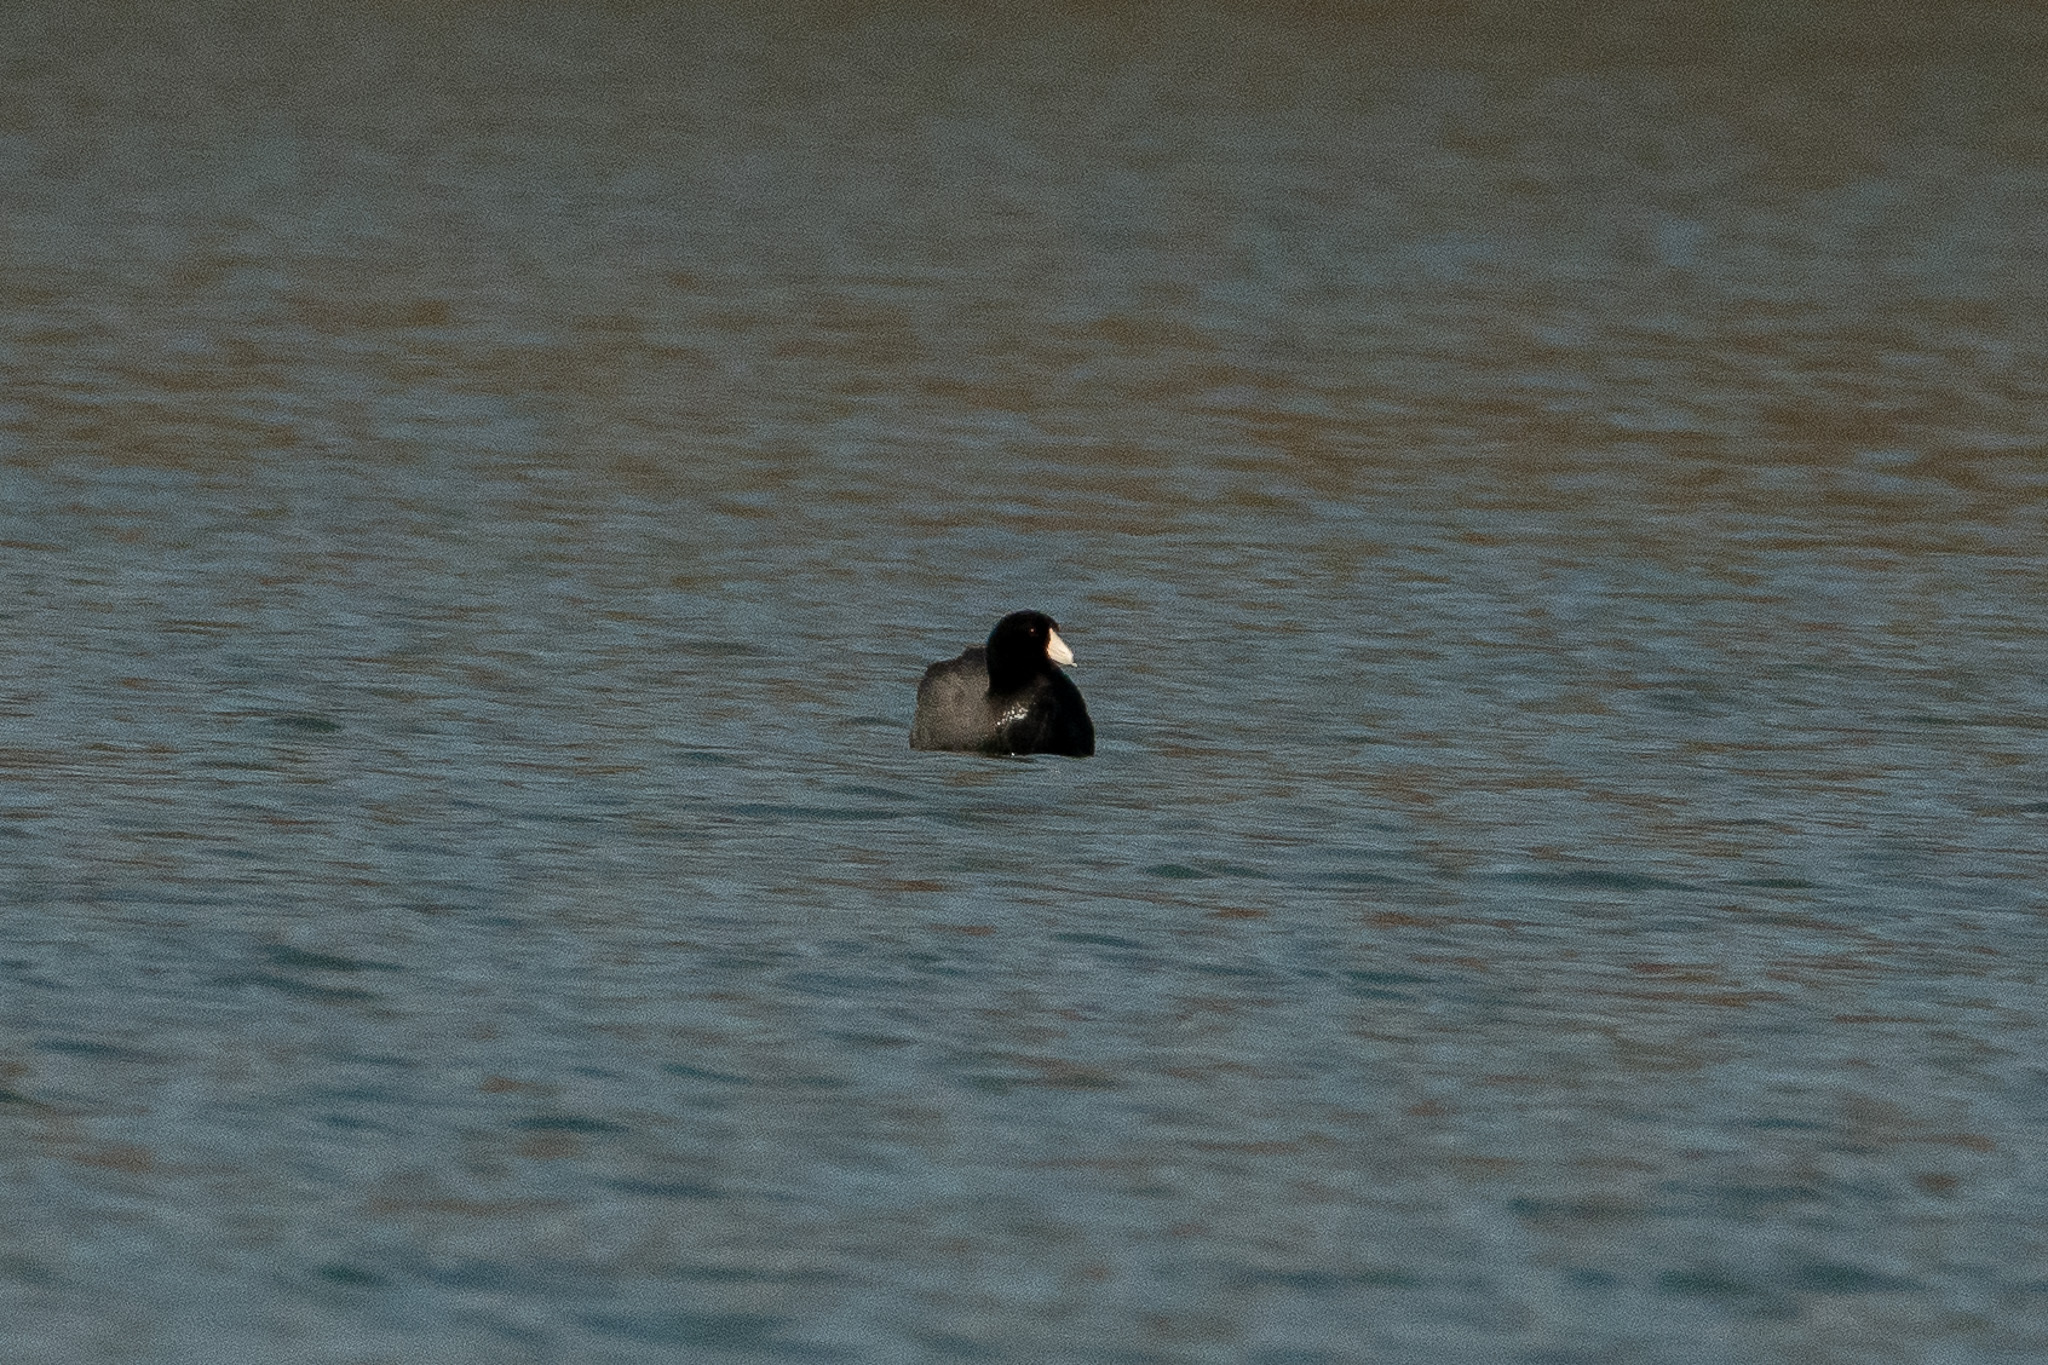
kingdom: Animalia
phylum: Chordata
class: Aves
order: Gruiformes
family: Rallidae
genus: Fulica
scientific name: Fulica americana
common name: American coot
